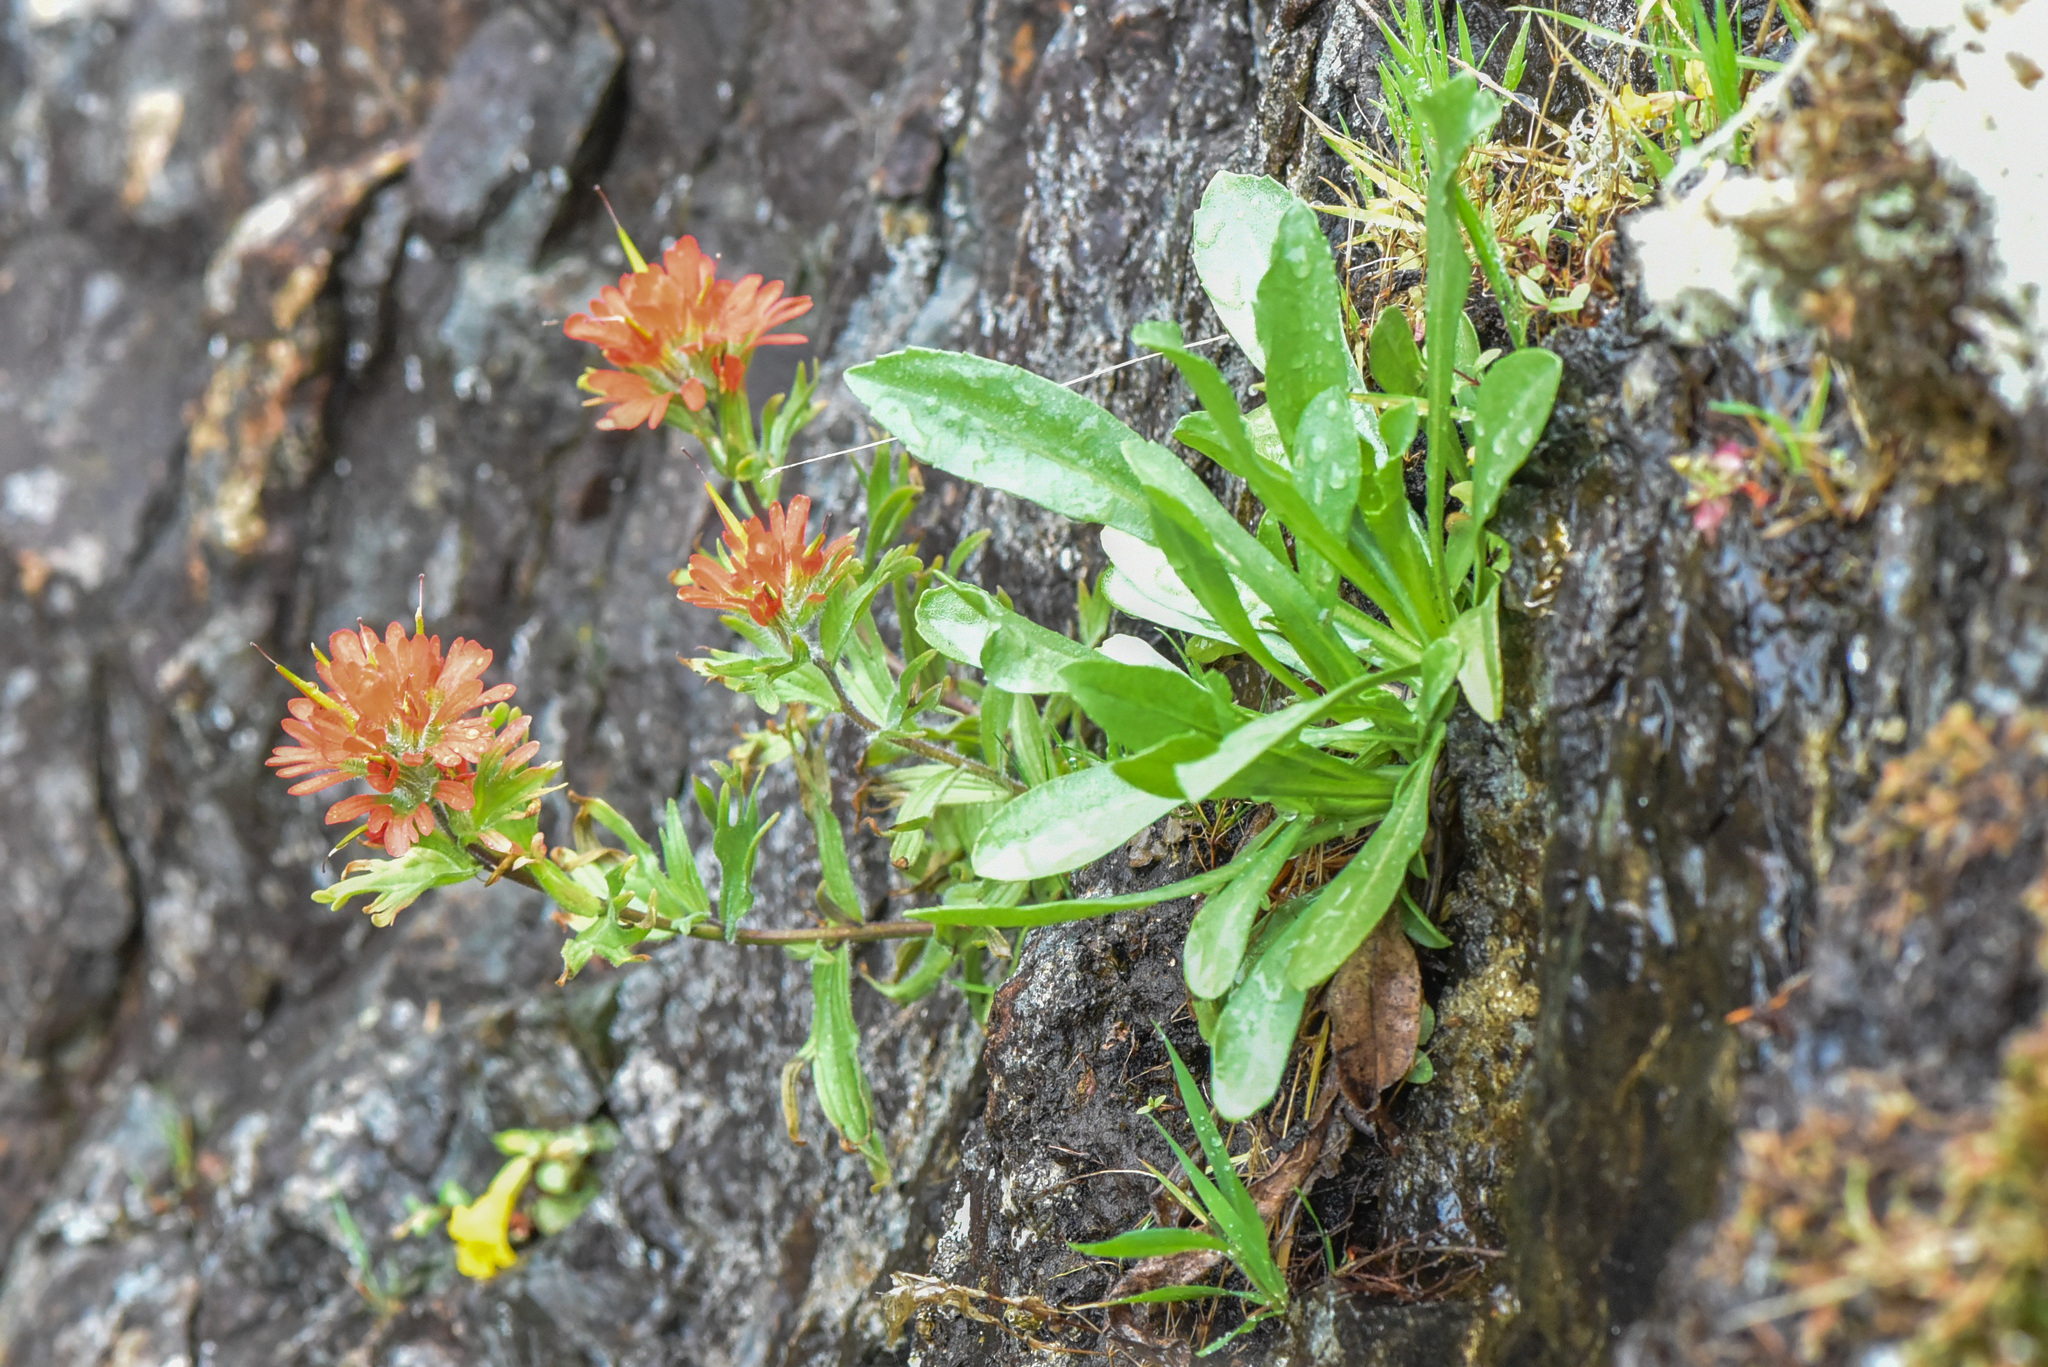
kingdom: Plantae
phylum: Tracheophyta
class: Magnoliopsida
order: Lamiales
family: Orobanchaceae
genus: Castilleja
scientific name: Castilleja hispida
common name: Bristly paintbrush
